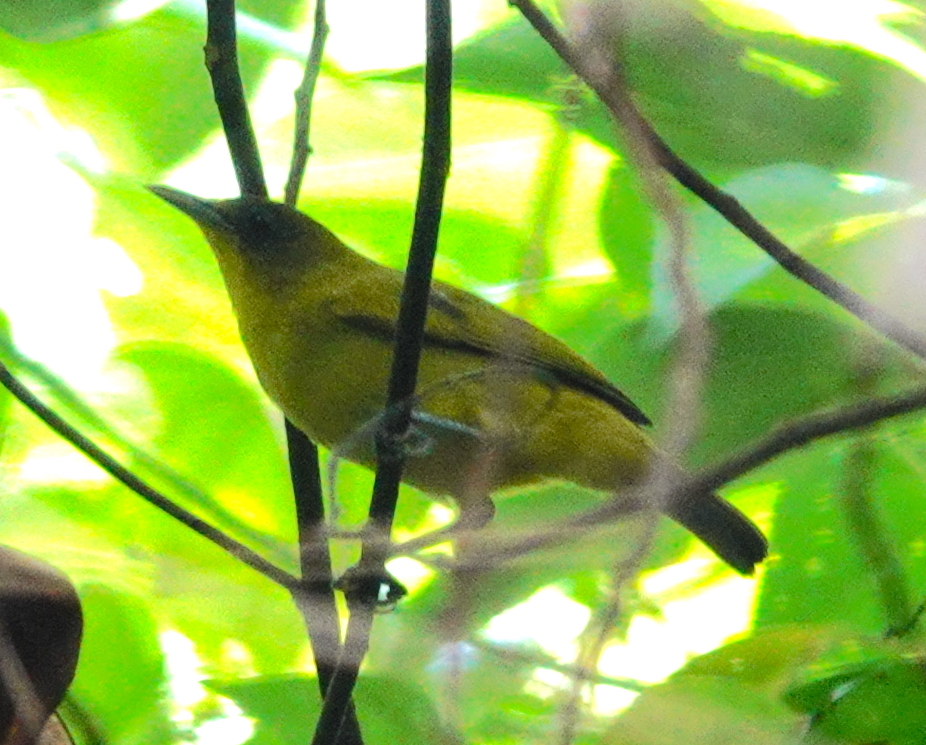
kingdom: Animalia
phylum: Chordata
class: Aves
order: Passeriformes
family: Zosteropidae
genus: Zosterops
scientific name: Zosterops uropygialis
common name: Golden-bellied white-eye
